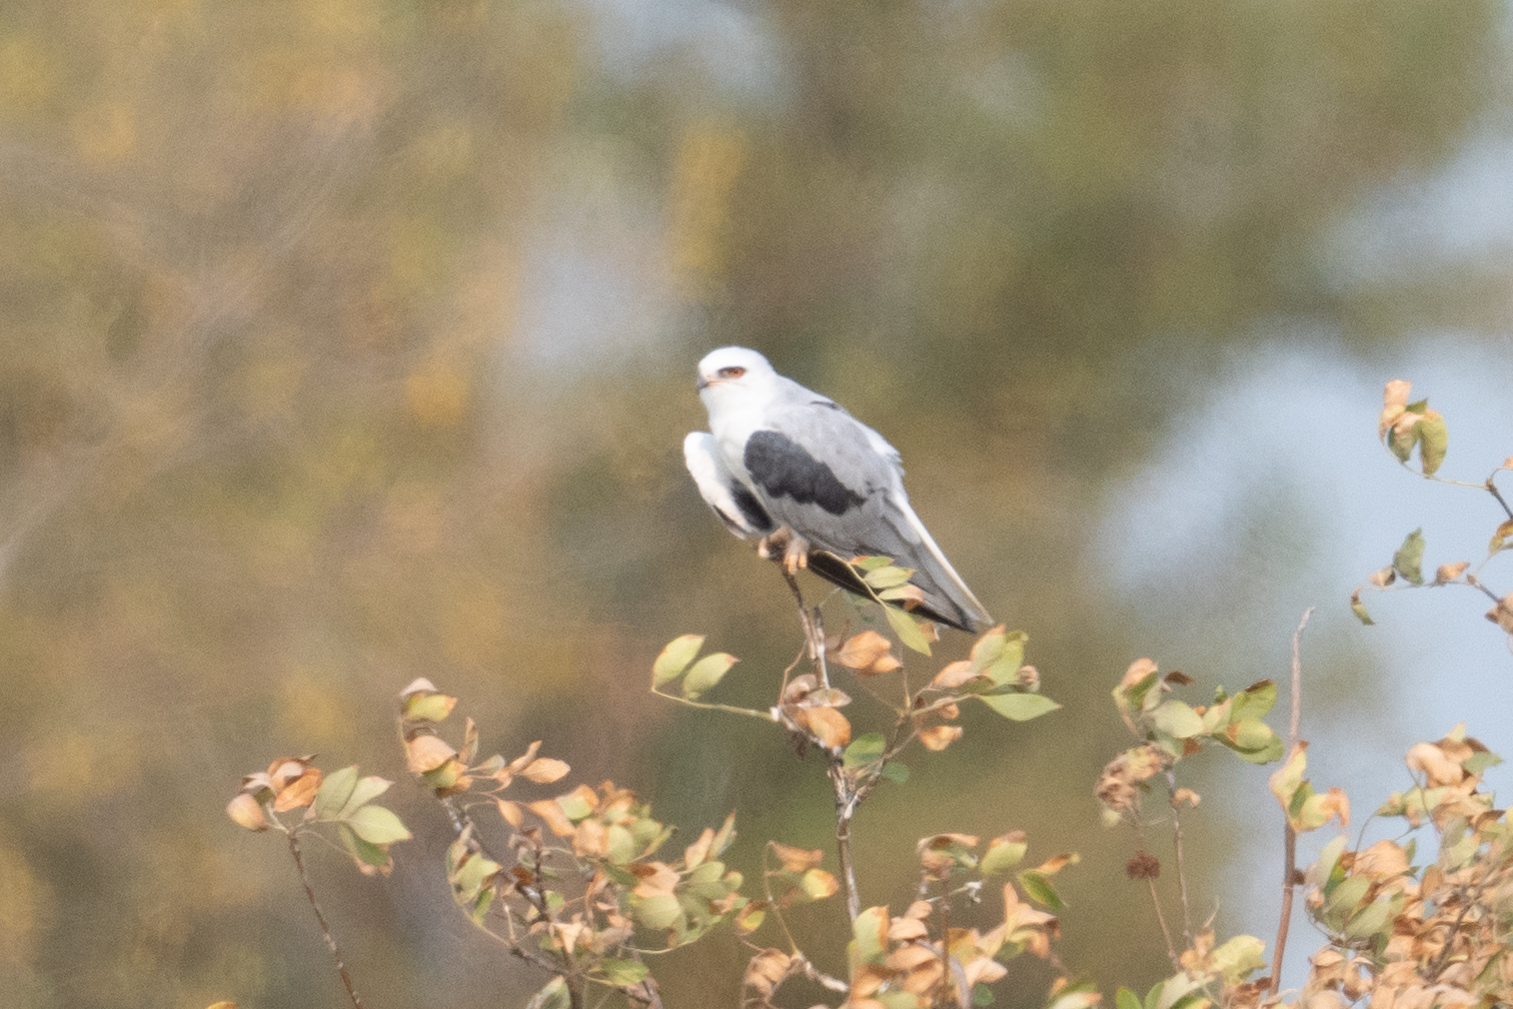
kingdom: Animalia
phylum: Chordata
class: Aves
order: Accipitriformes
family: Accipitridae
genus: Elanus
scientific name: Elanus leucurus
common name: White-tailed kite
